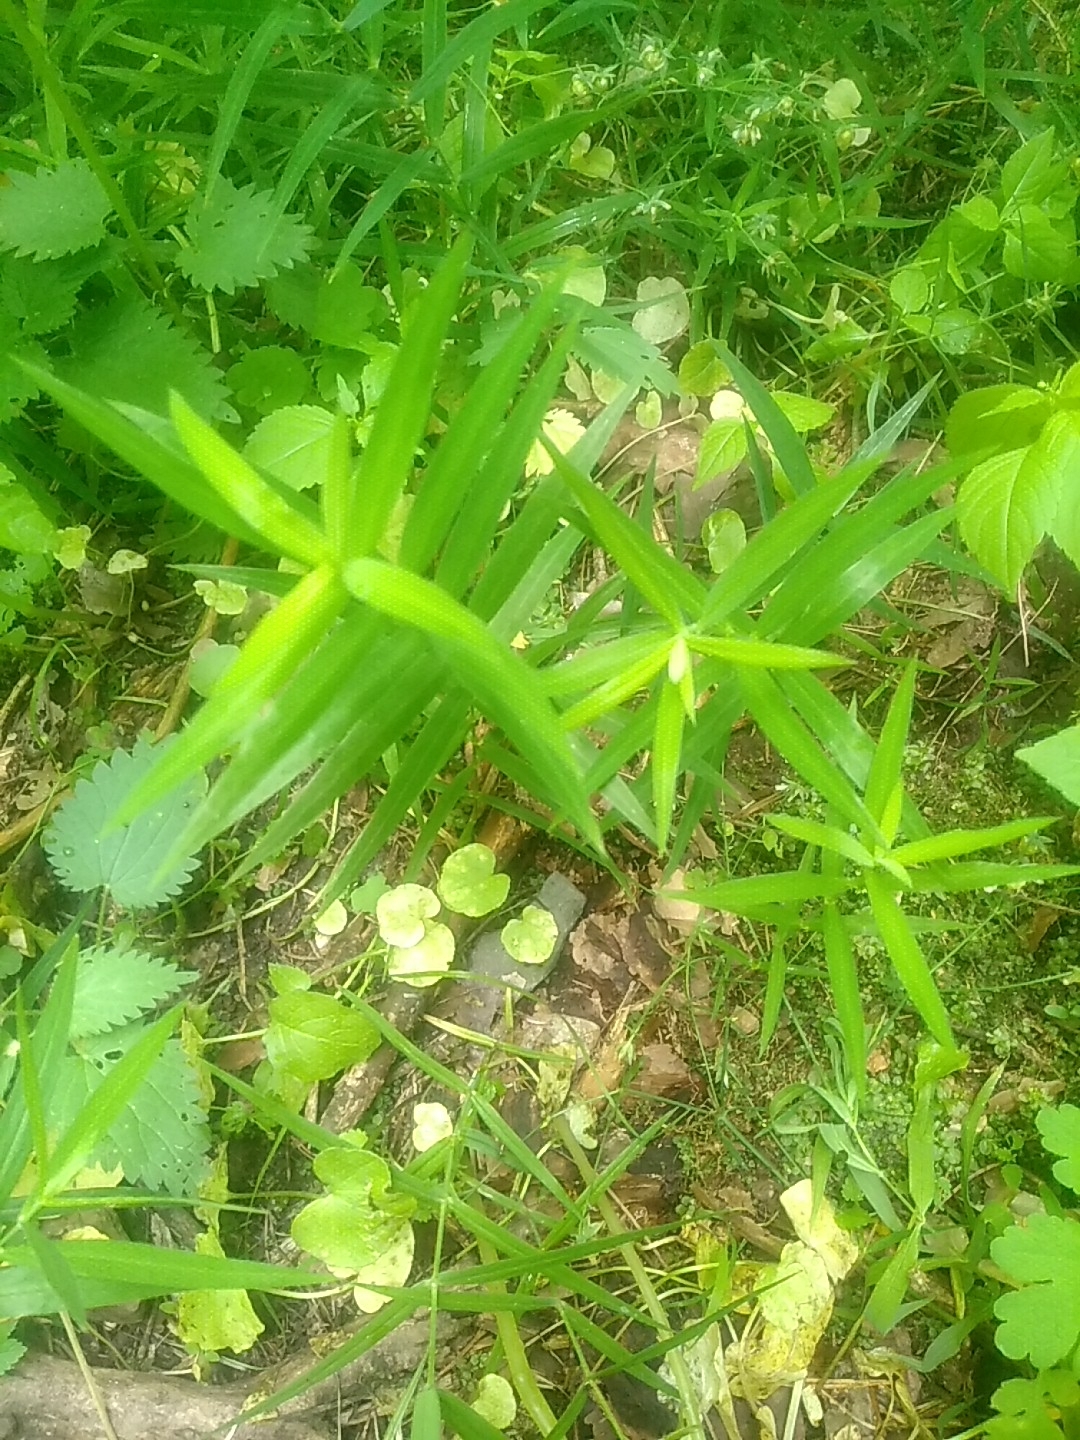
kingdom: Plantae
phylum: Tracheophyta
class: Magnoliopsida
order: Caryophyllales
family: Caryophyllaceae
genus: Rabelera
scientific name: Rabelera holostea
